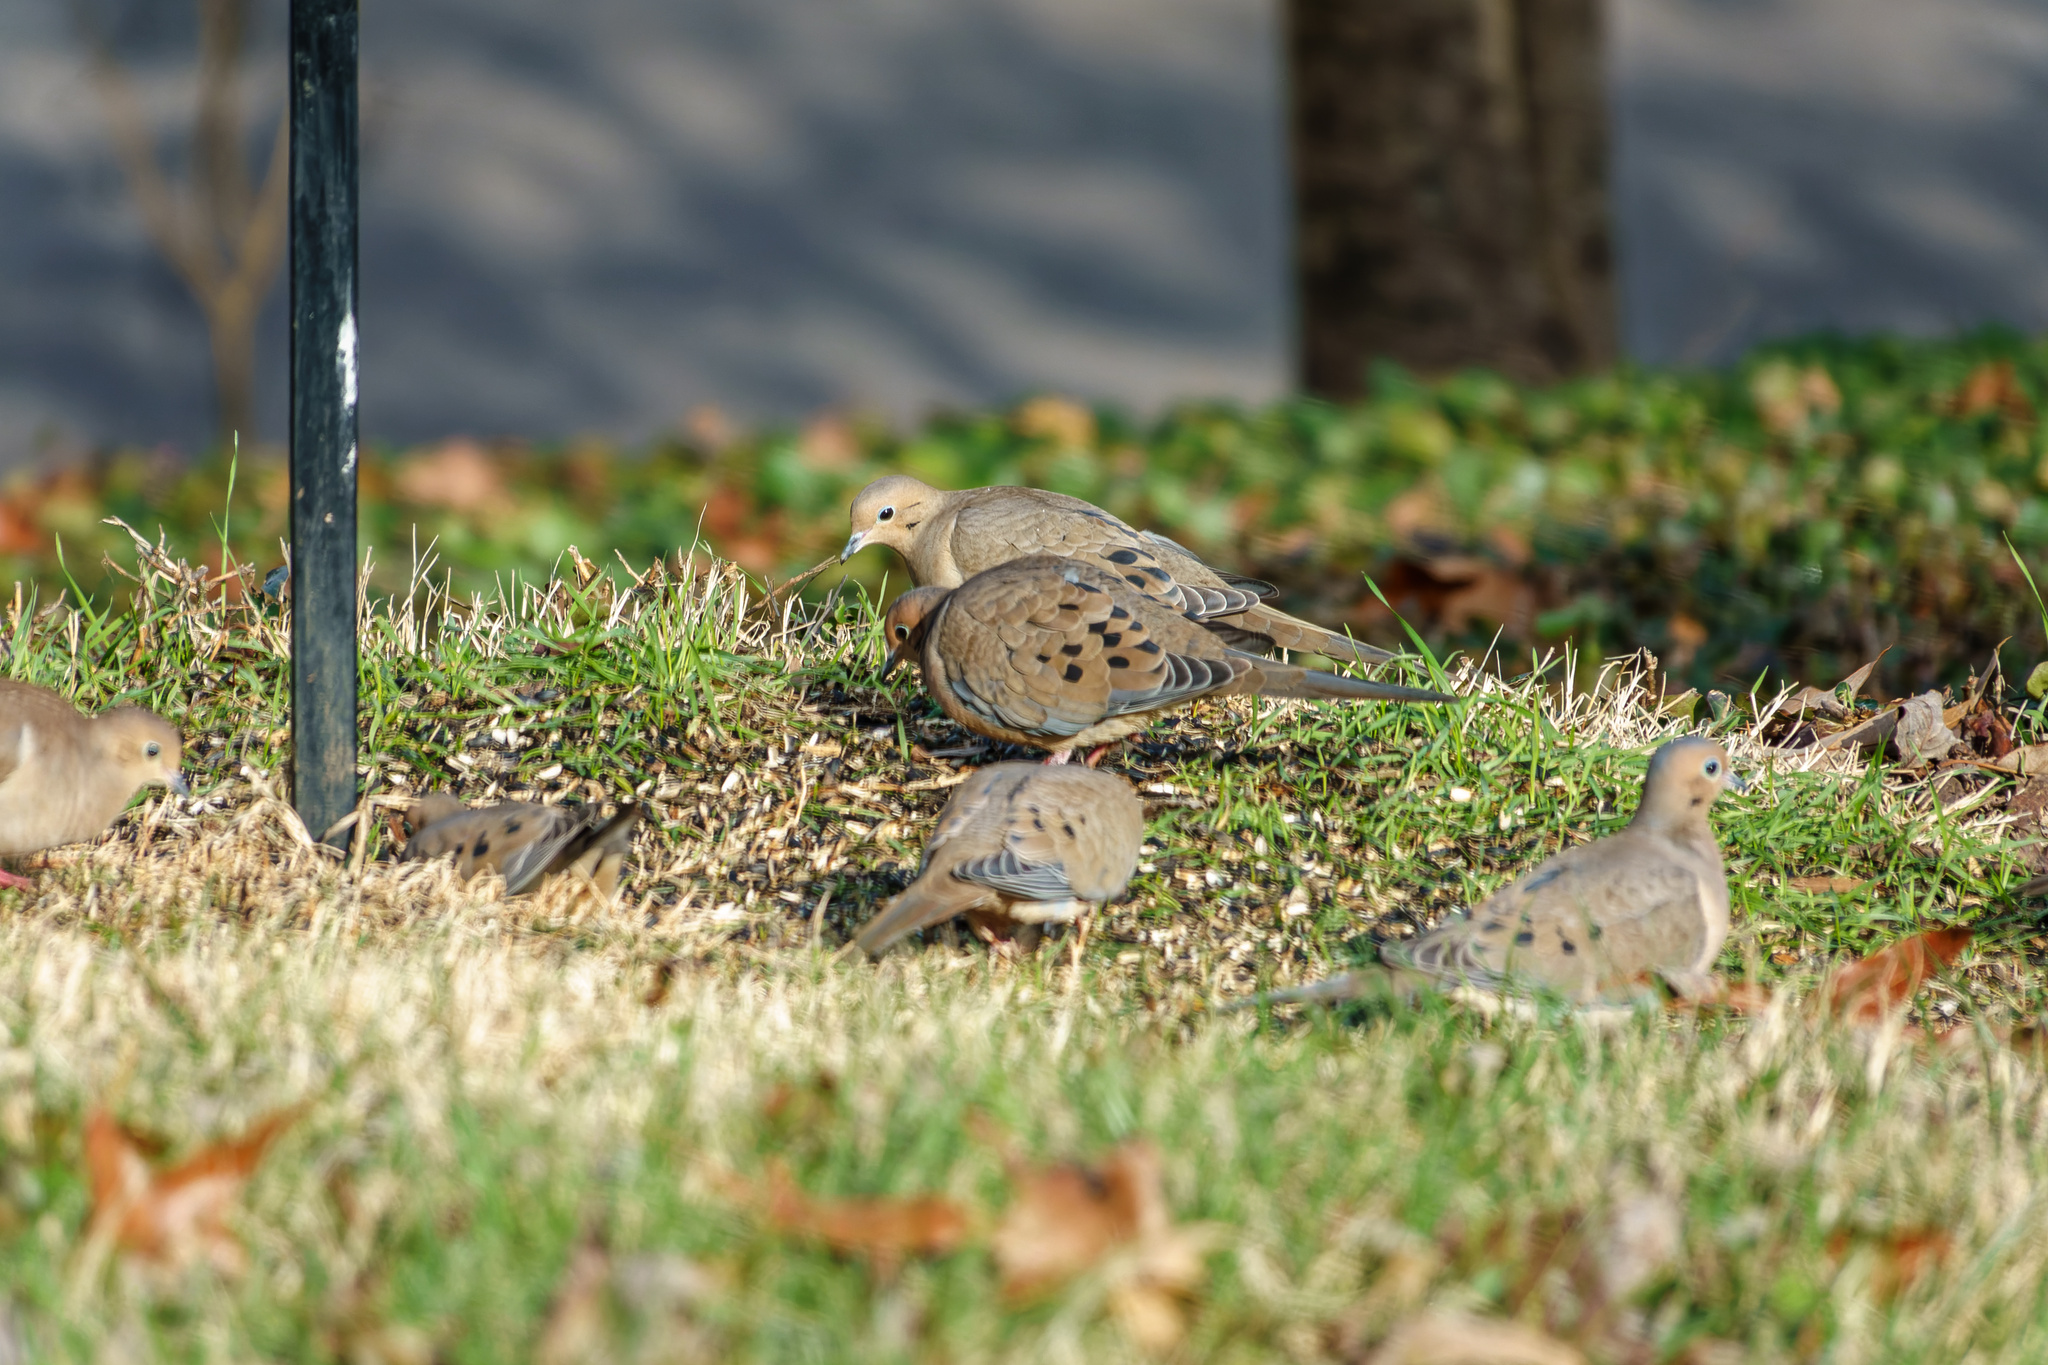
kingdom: Animalia
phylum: Chordata
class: Aves
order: Columbiformes
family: Columbidae
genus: Zenaida
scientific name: Zenaida macroura
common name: Mourning dove
